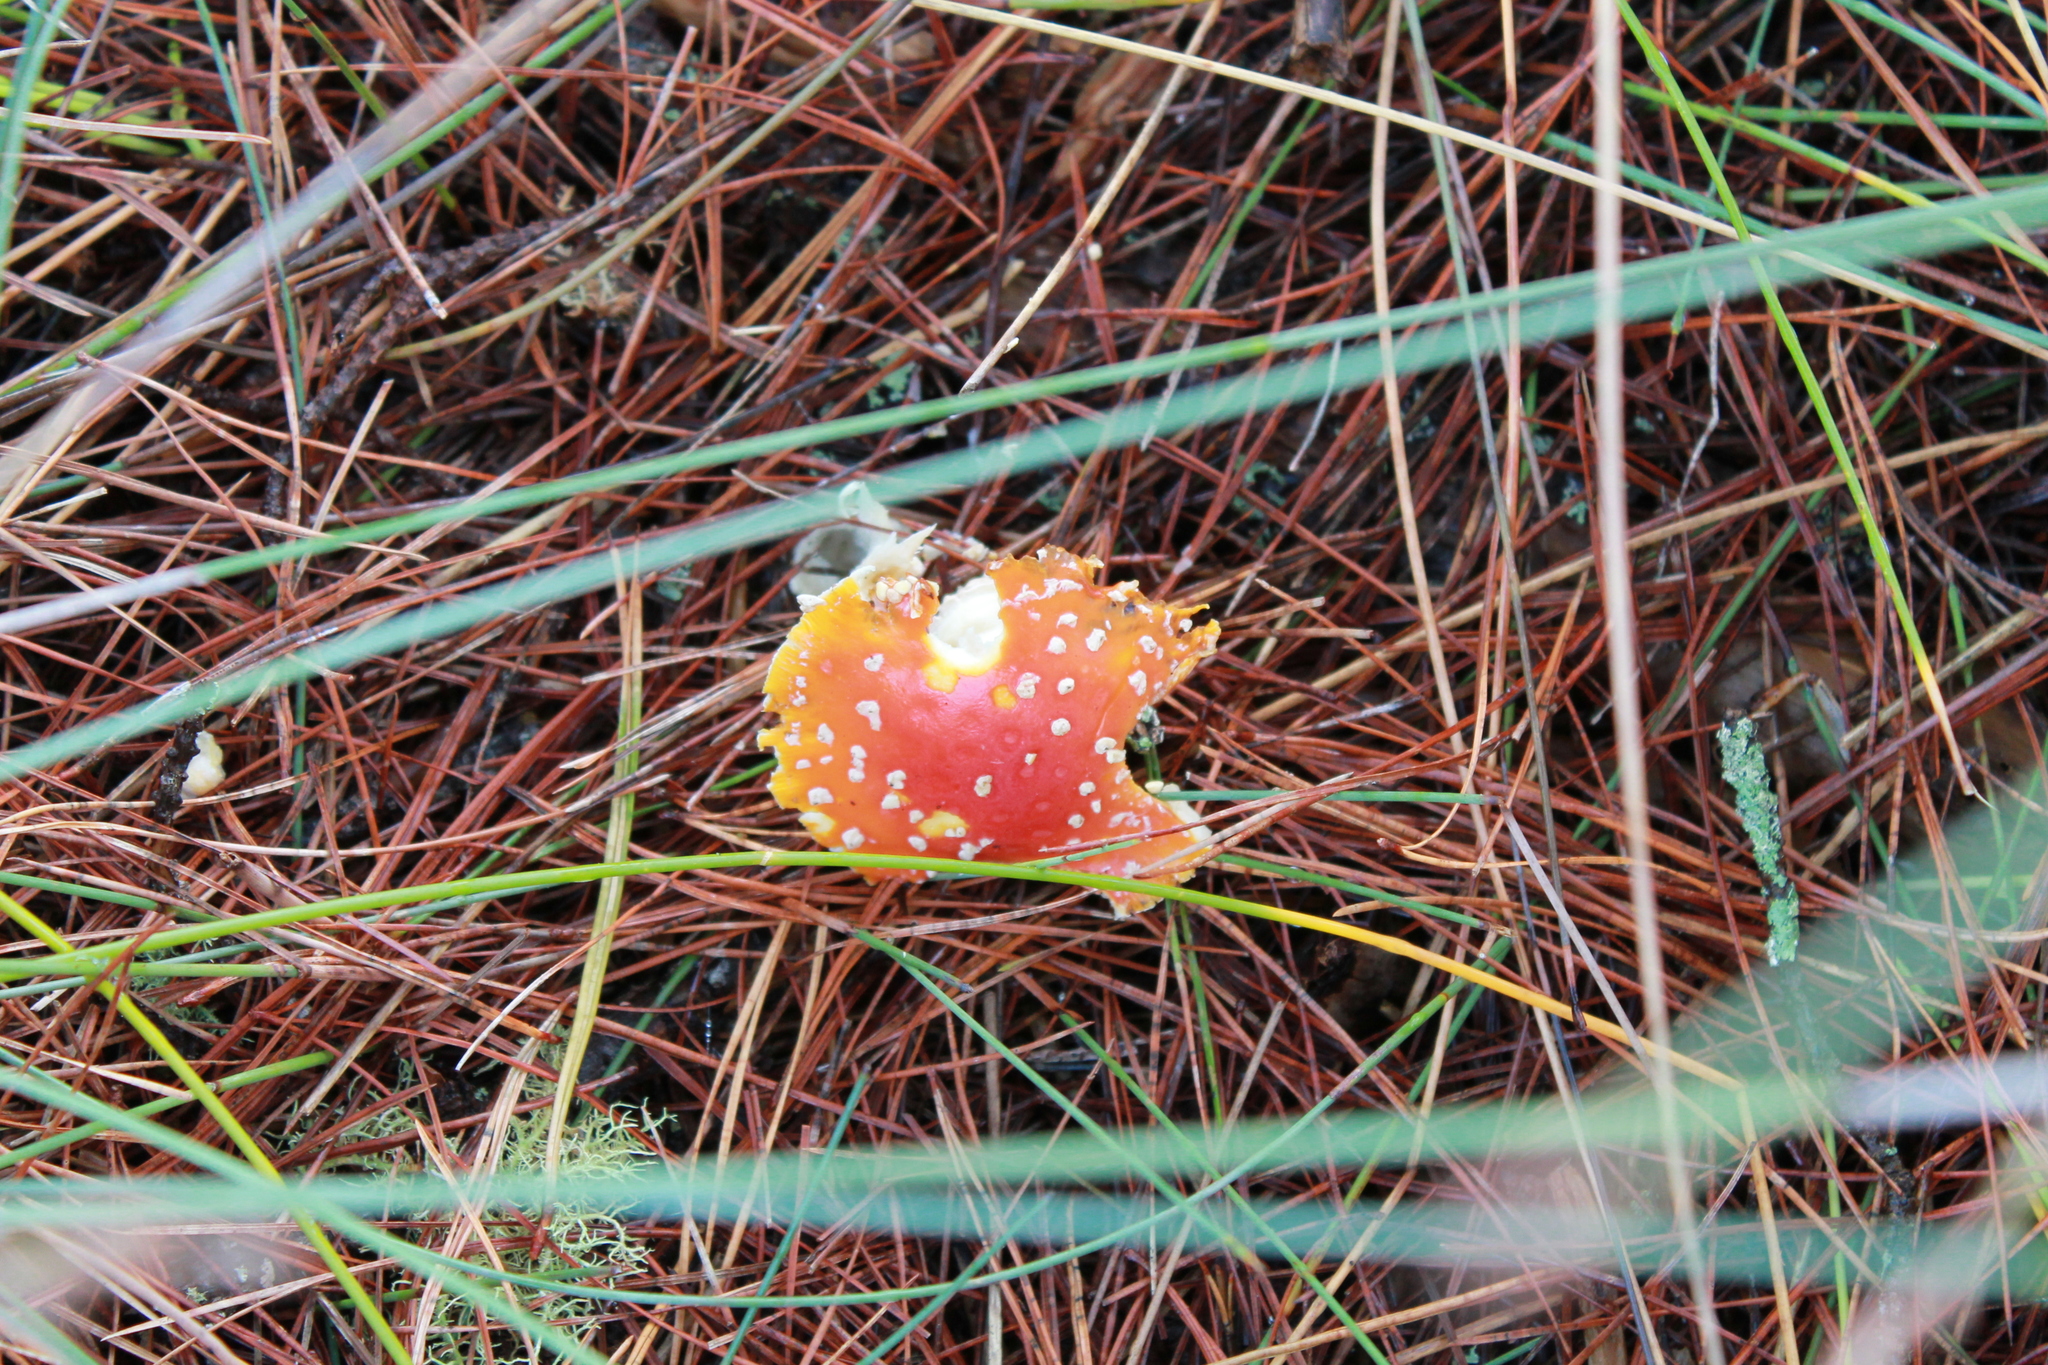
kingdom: Fungi
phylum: Basidiomycota
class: Agaricomycetes
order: Agaricales
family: Amanitaceae
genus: Amanita
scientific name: Amanita muscaria
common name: Fly agaric
